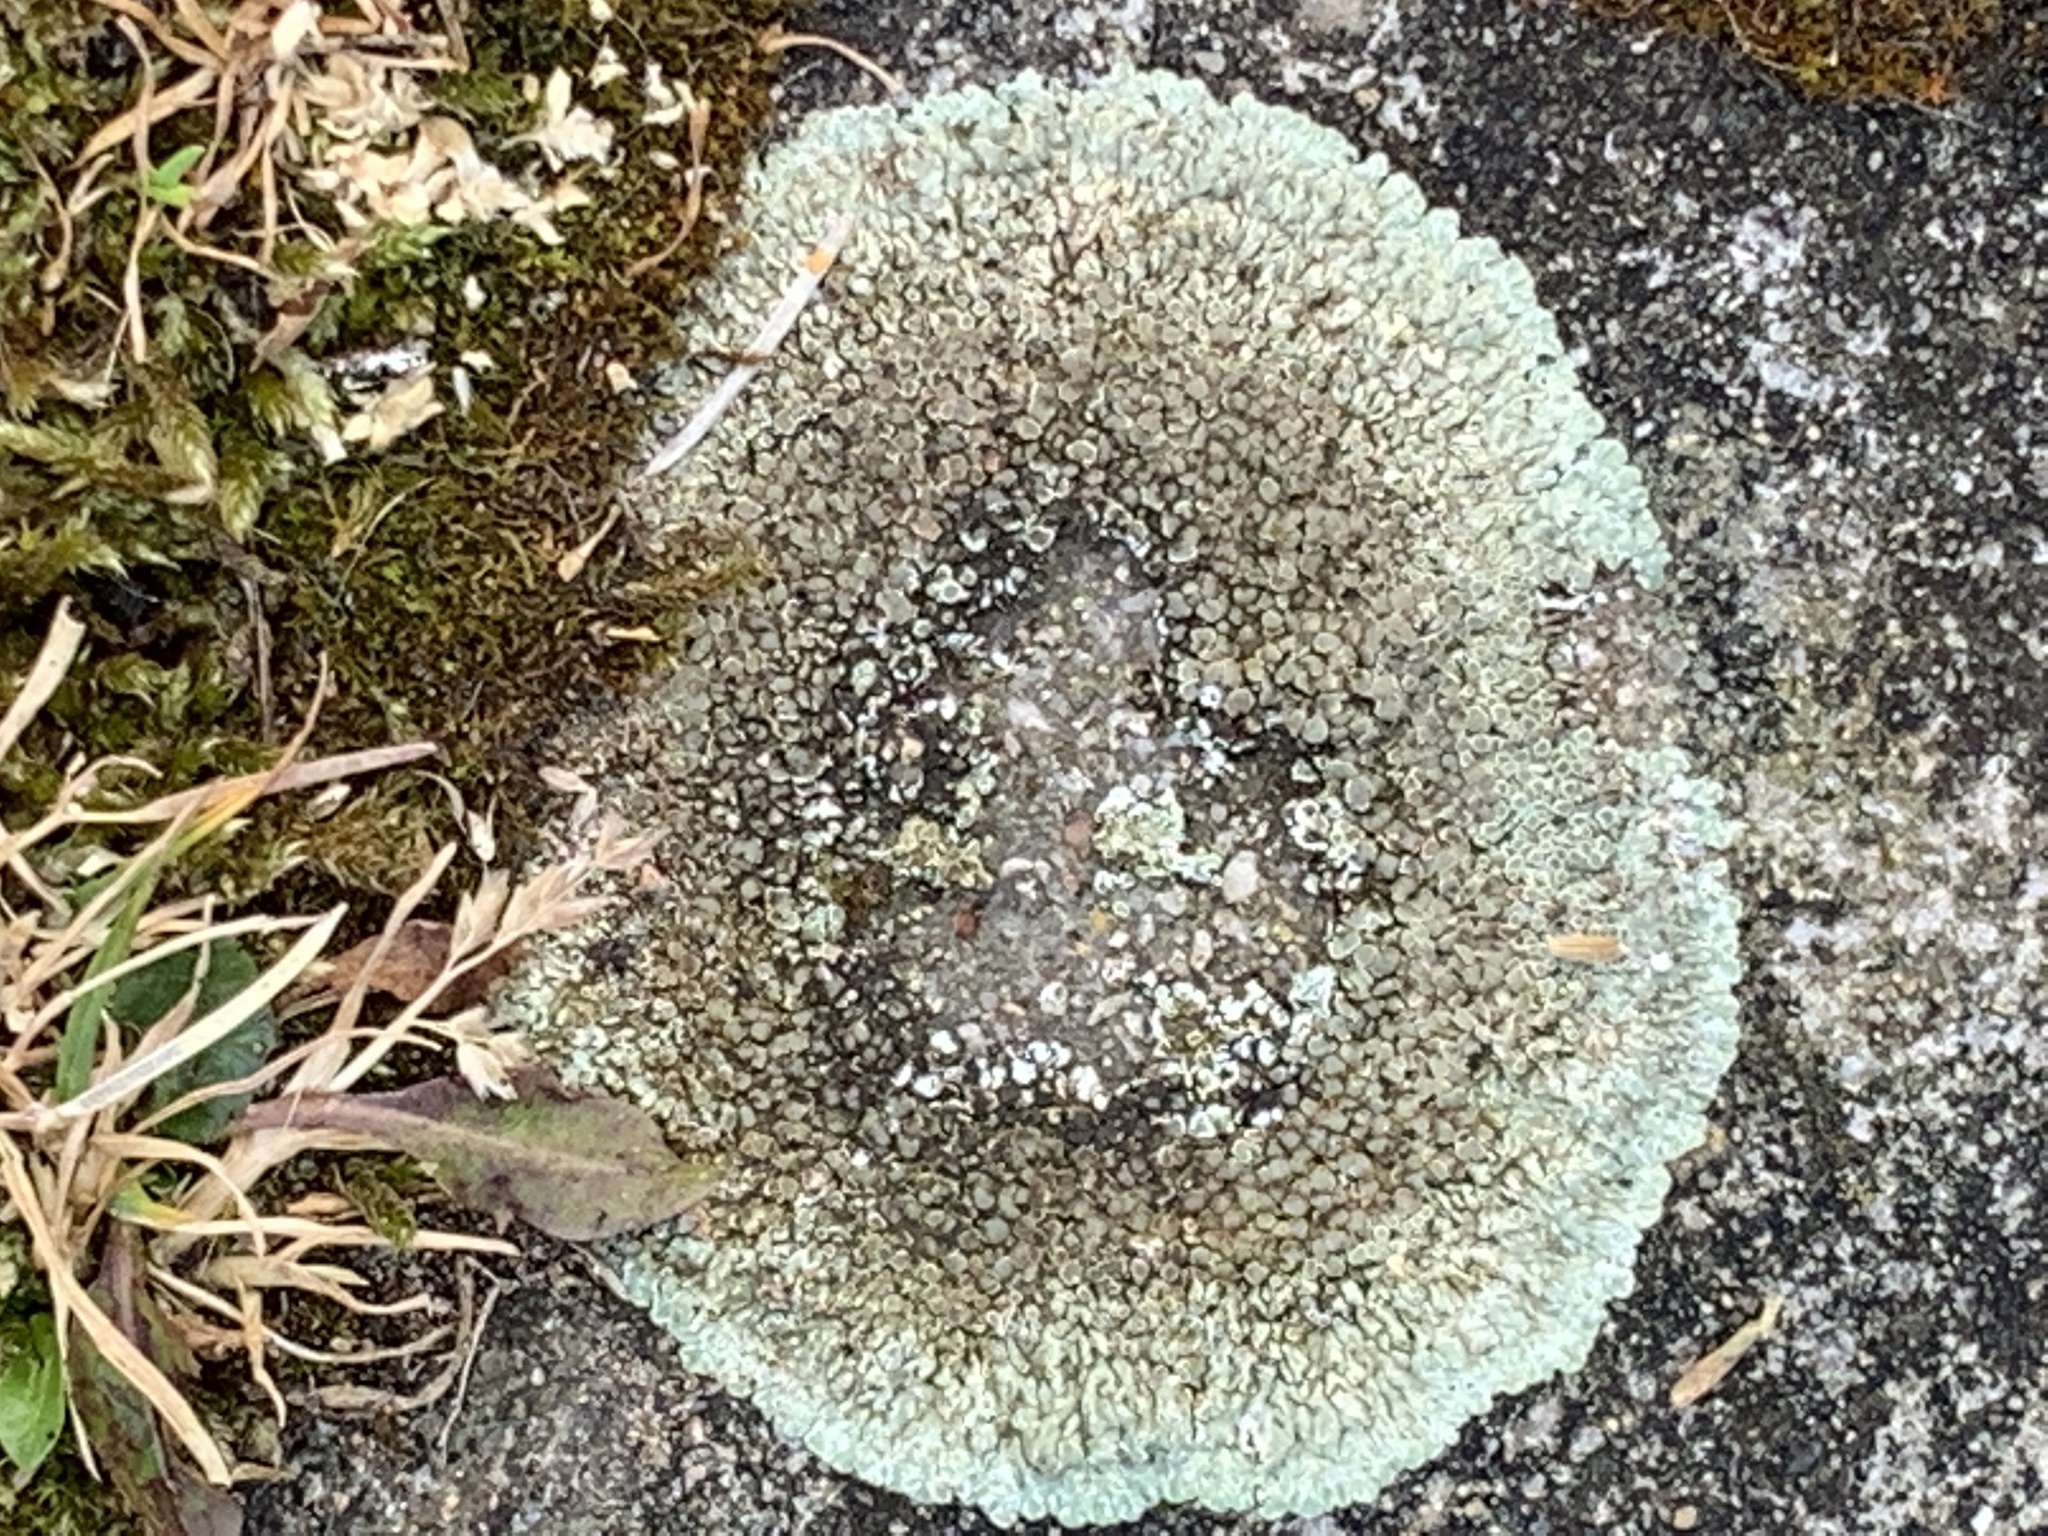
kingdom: Fungi
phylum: Ascomycota
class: Lecanoromycetes
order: Lecanorales
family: Lecanoraceae
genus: Protoparmeliopsis
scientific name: Protoparmeliopsis muralis
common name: Stonewall rim lichen
